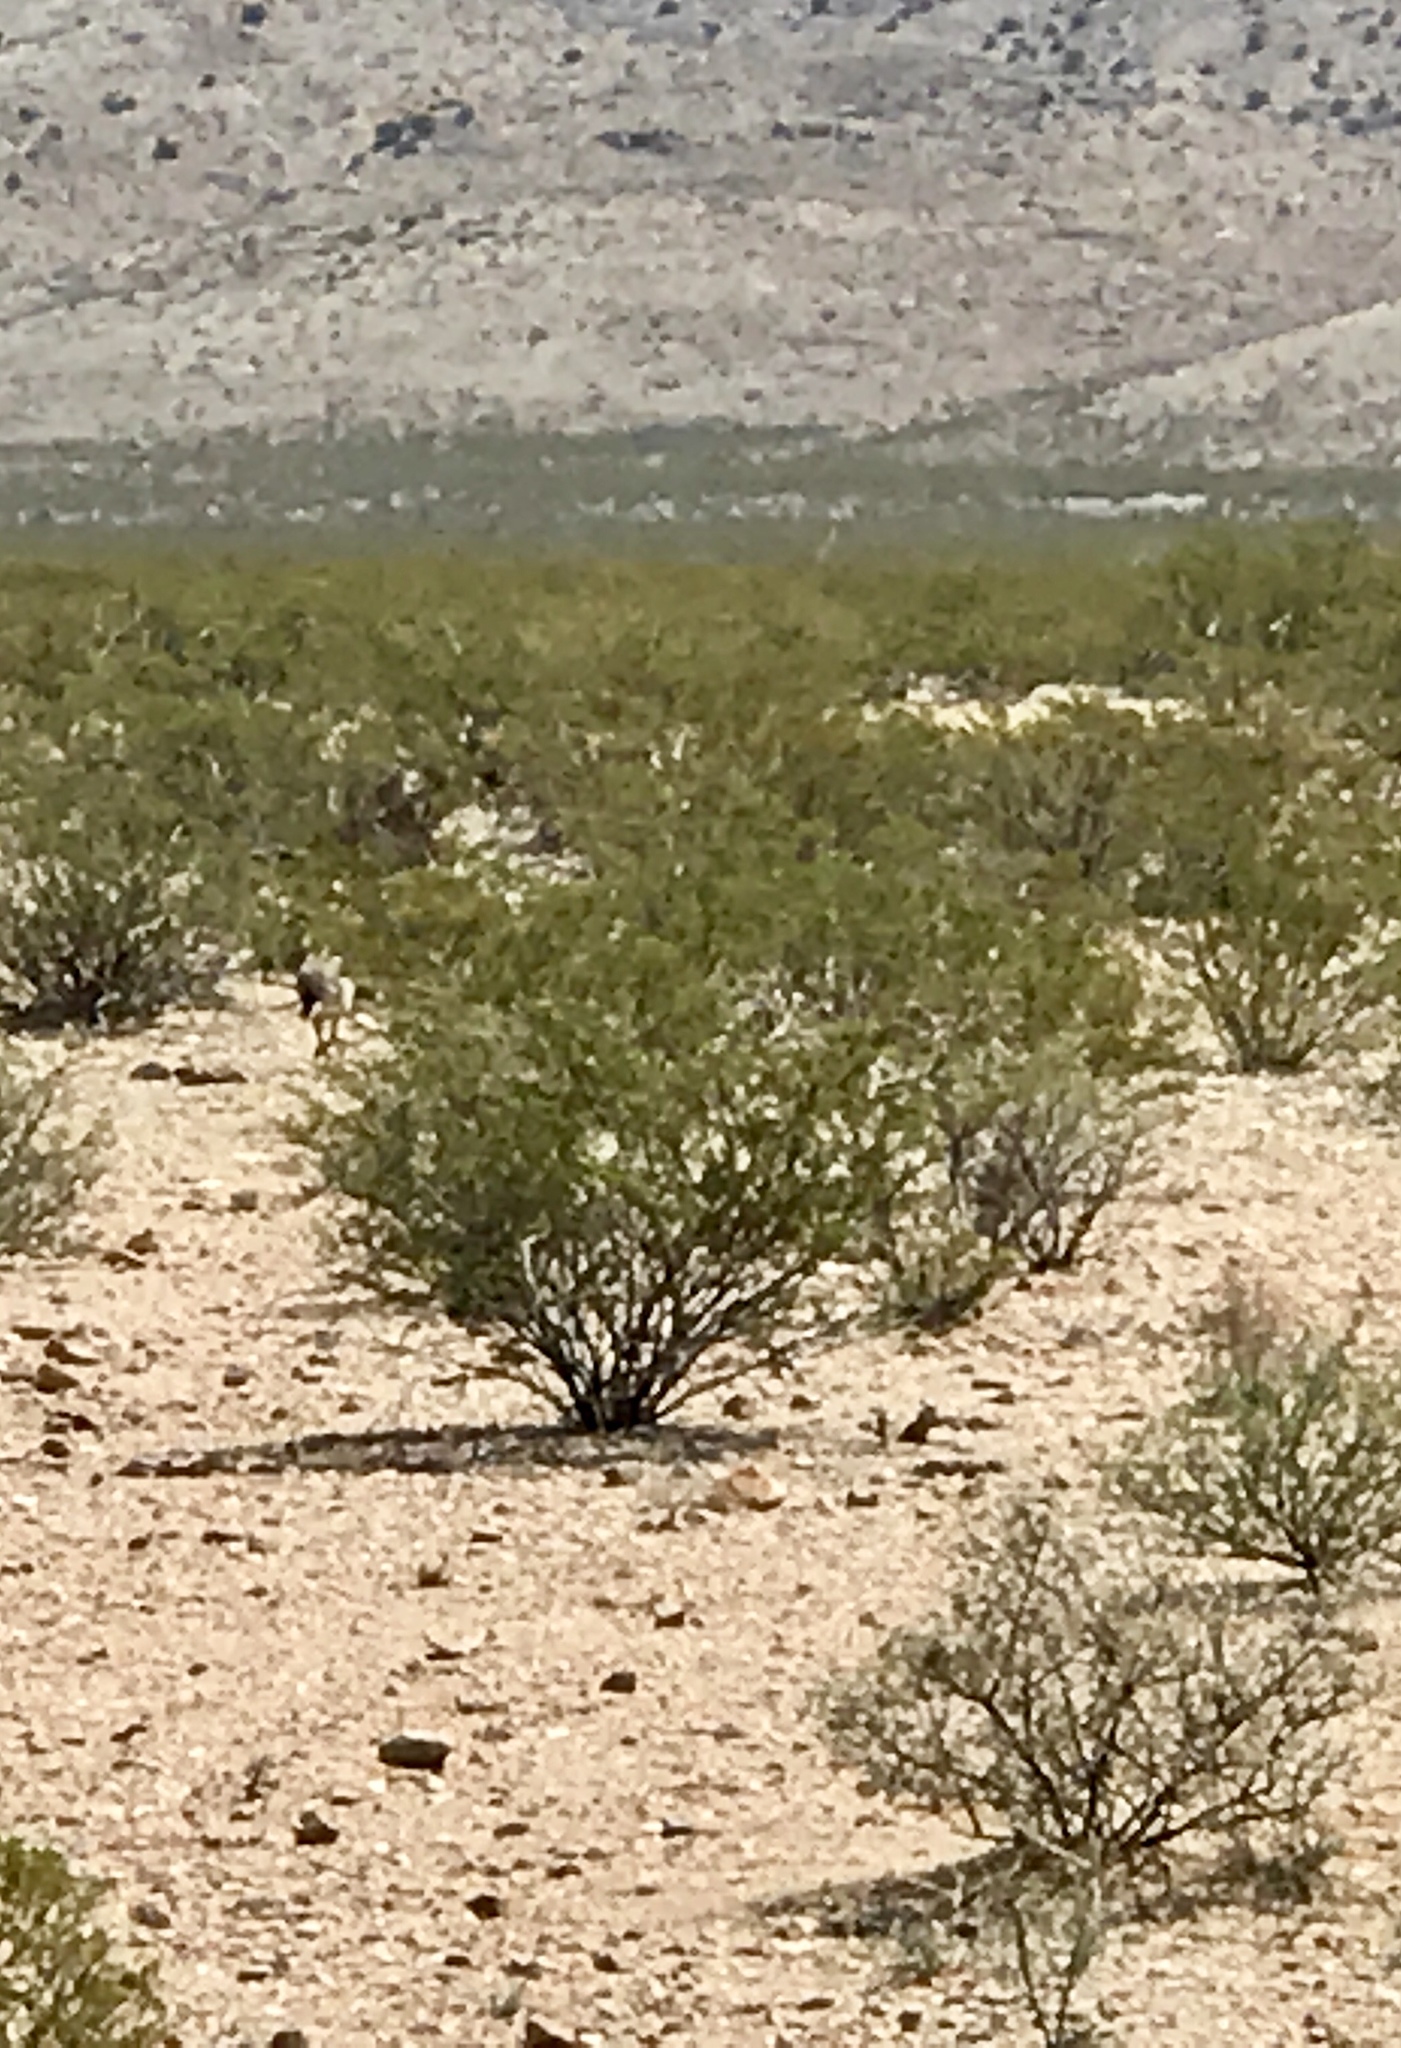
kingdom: Plantae
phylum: Tracheophyta
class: Magnoliopsida
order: Zygophyllales
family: Zygophyllaceae
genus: Larrea
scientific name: Larrea tridentata
